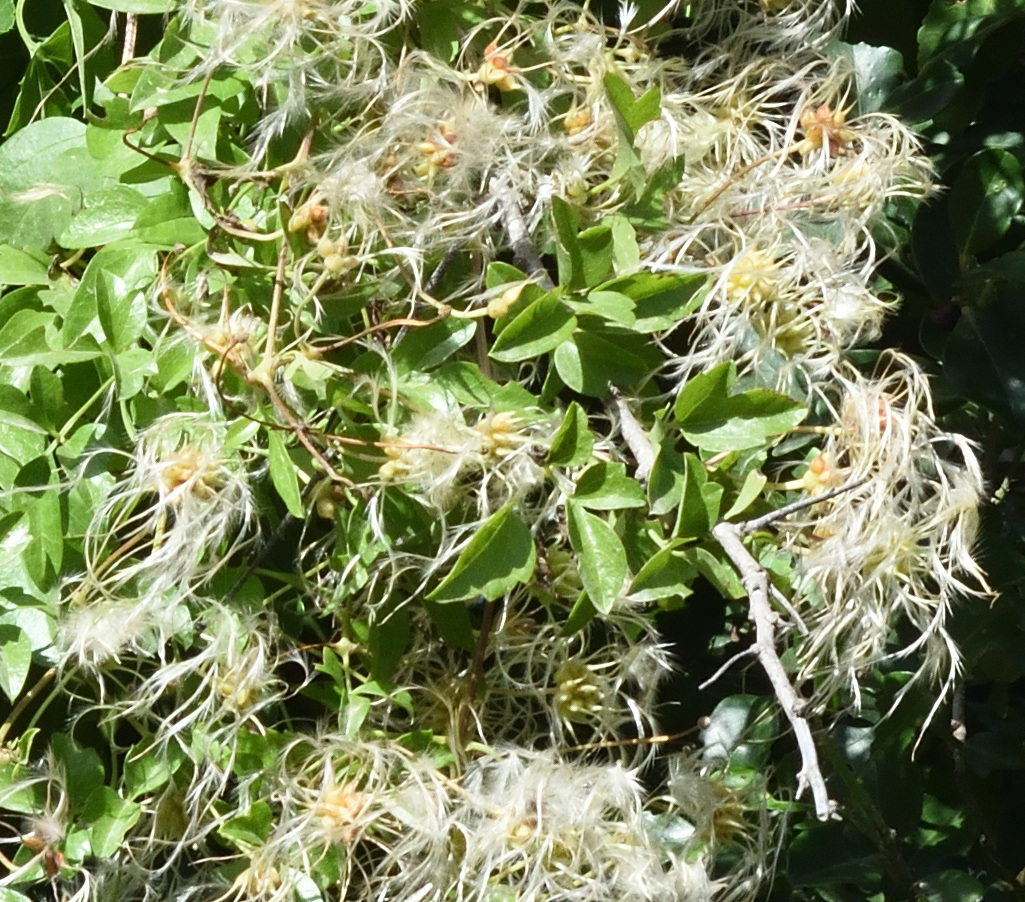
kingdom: Plantae
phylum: Tracheophyta
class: Magnoliopsida
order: Ranunculales
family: Ranunculaceae
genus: Clematis
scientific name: Clematis brachiata
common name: Traveler's-joy
